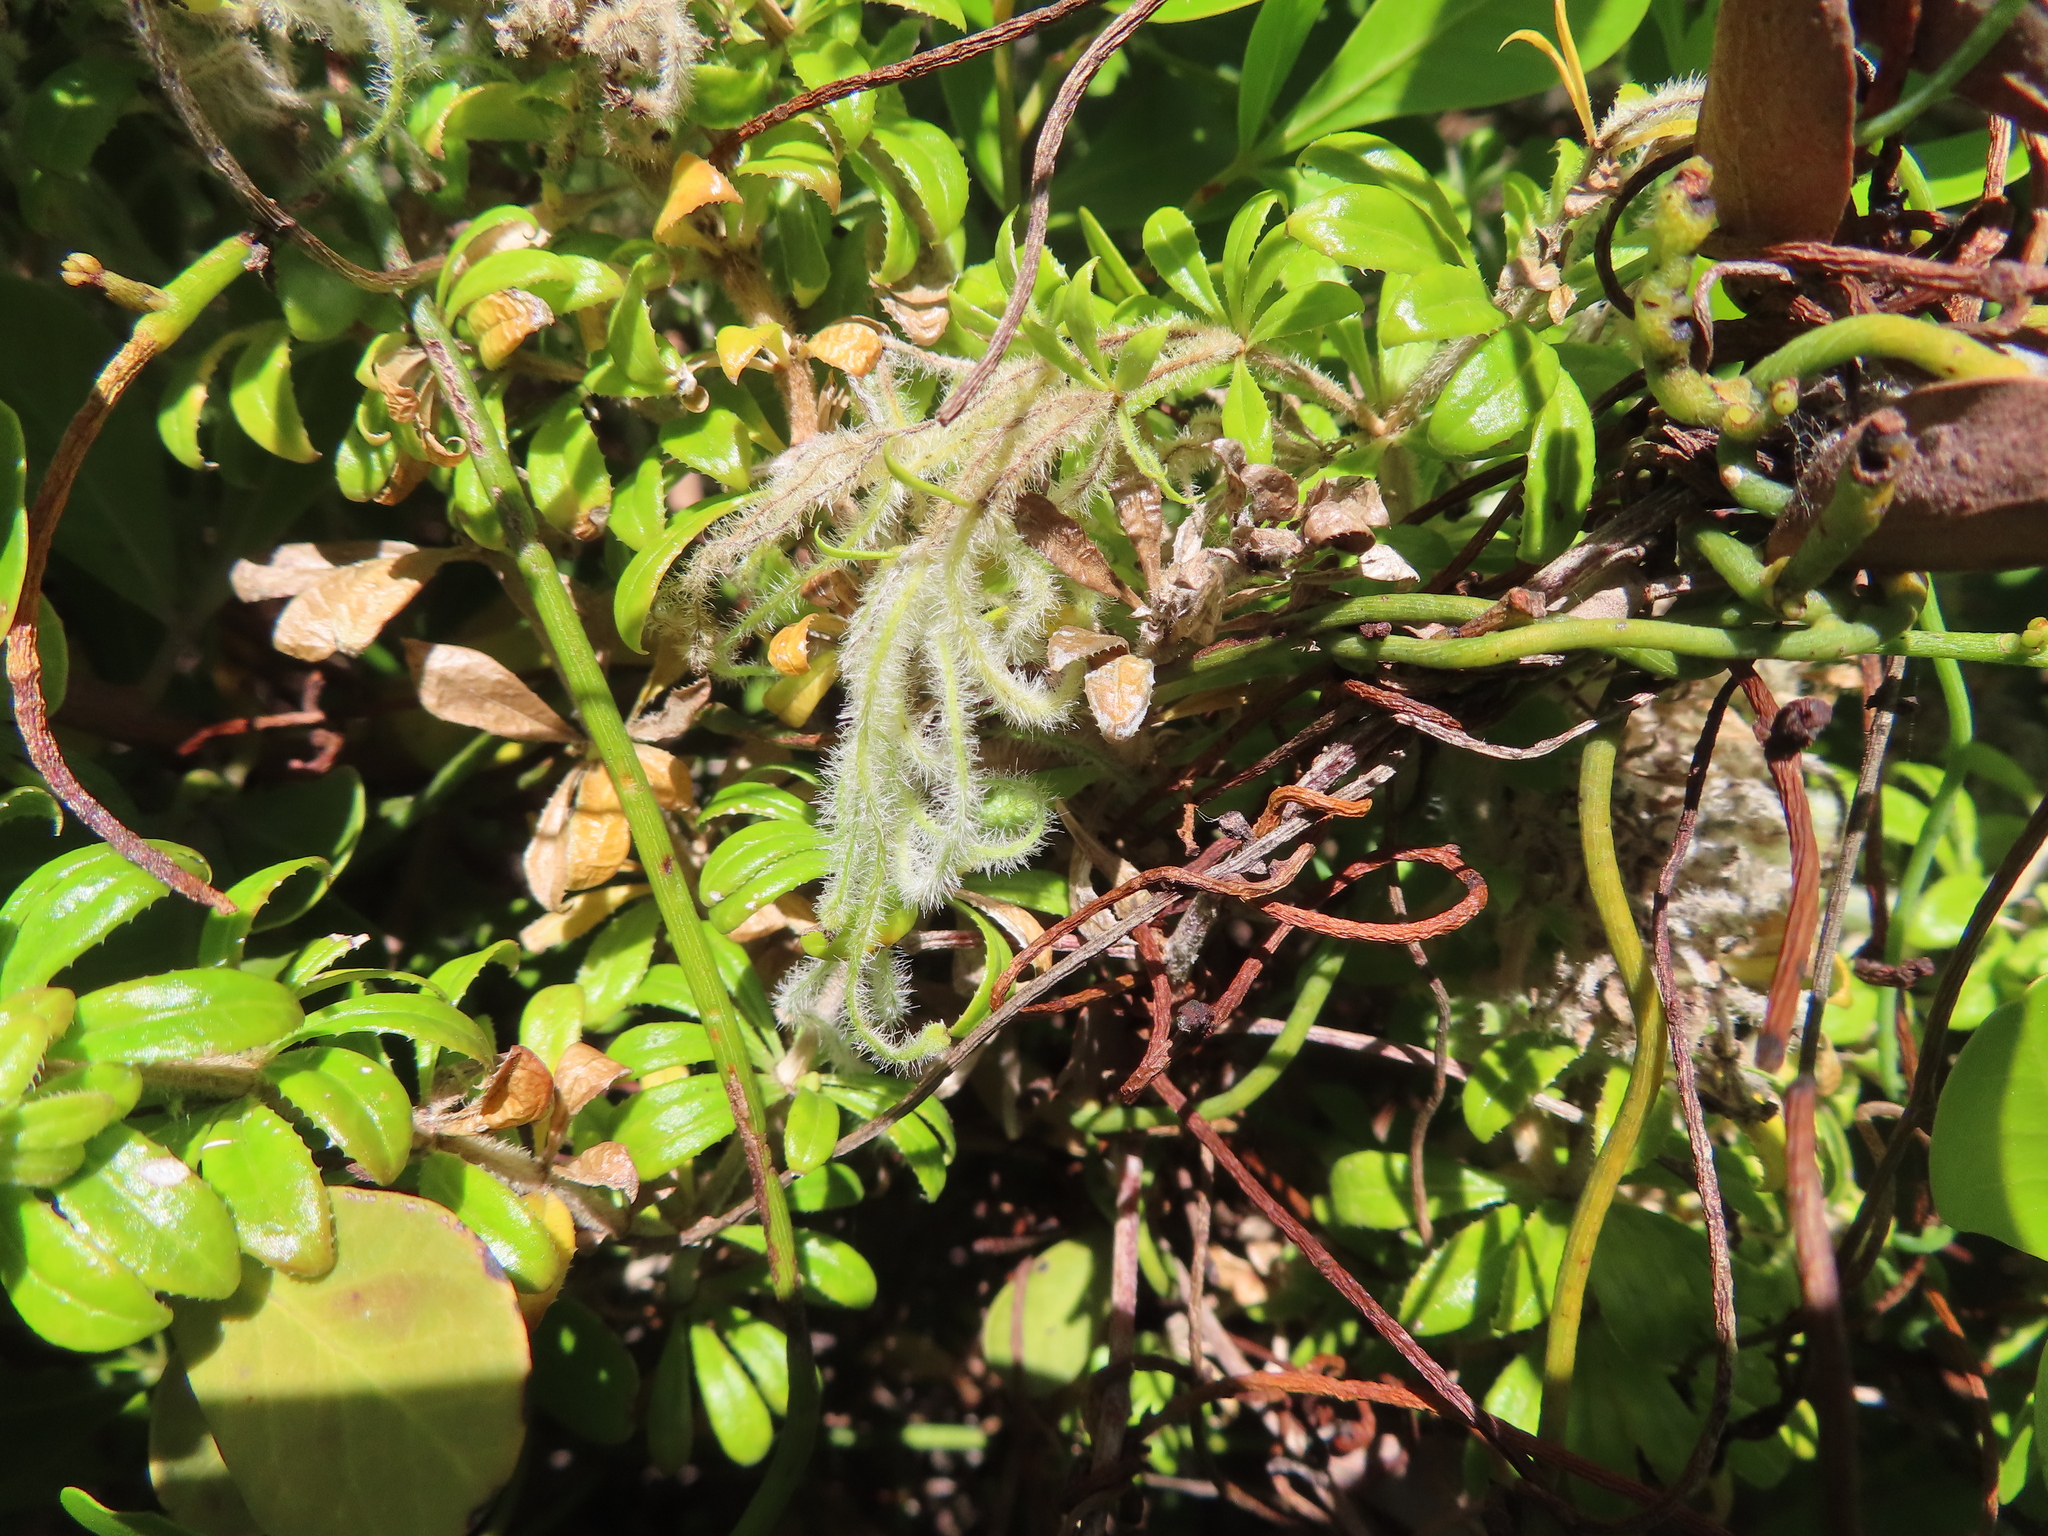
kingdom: Plantae
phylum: Tracheophyta
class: Magnoliopsida
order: Gentianales
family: Rubiaceae
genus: Galium
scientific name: Galium tomentosum
